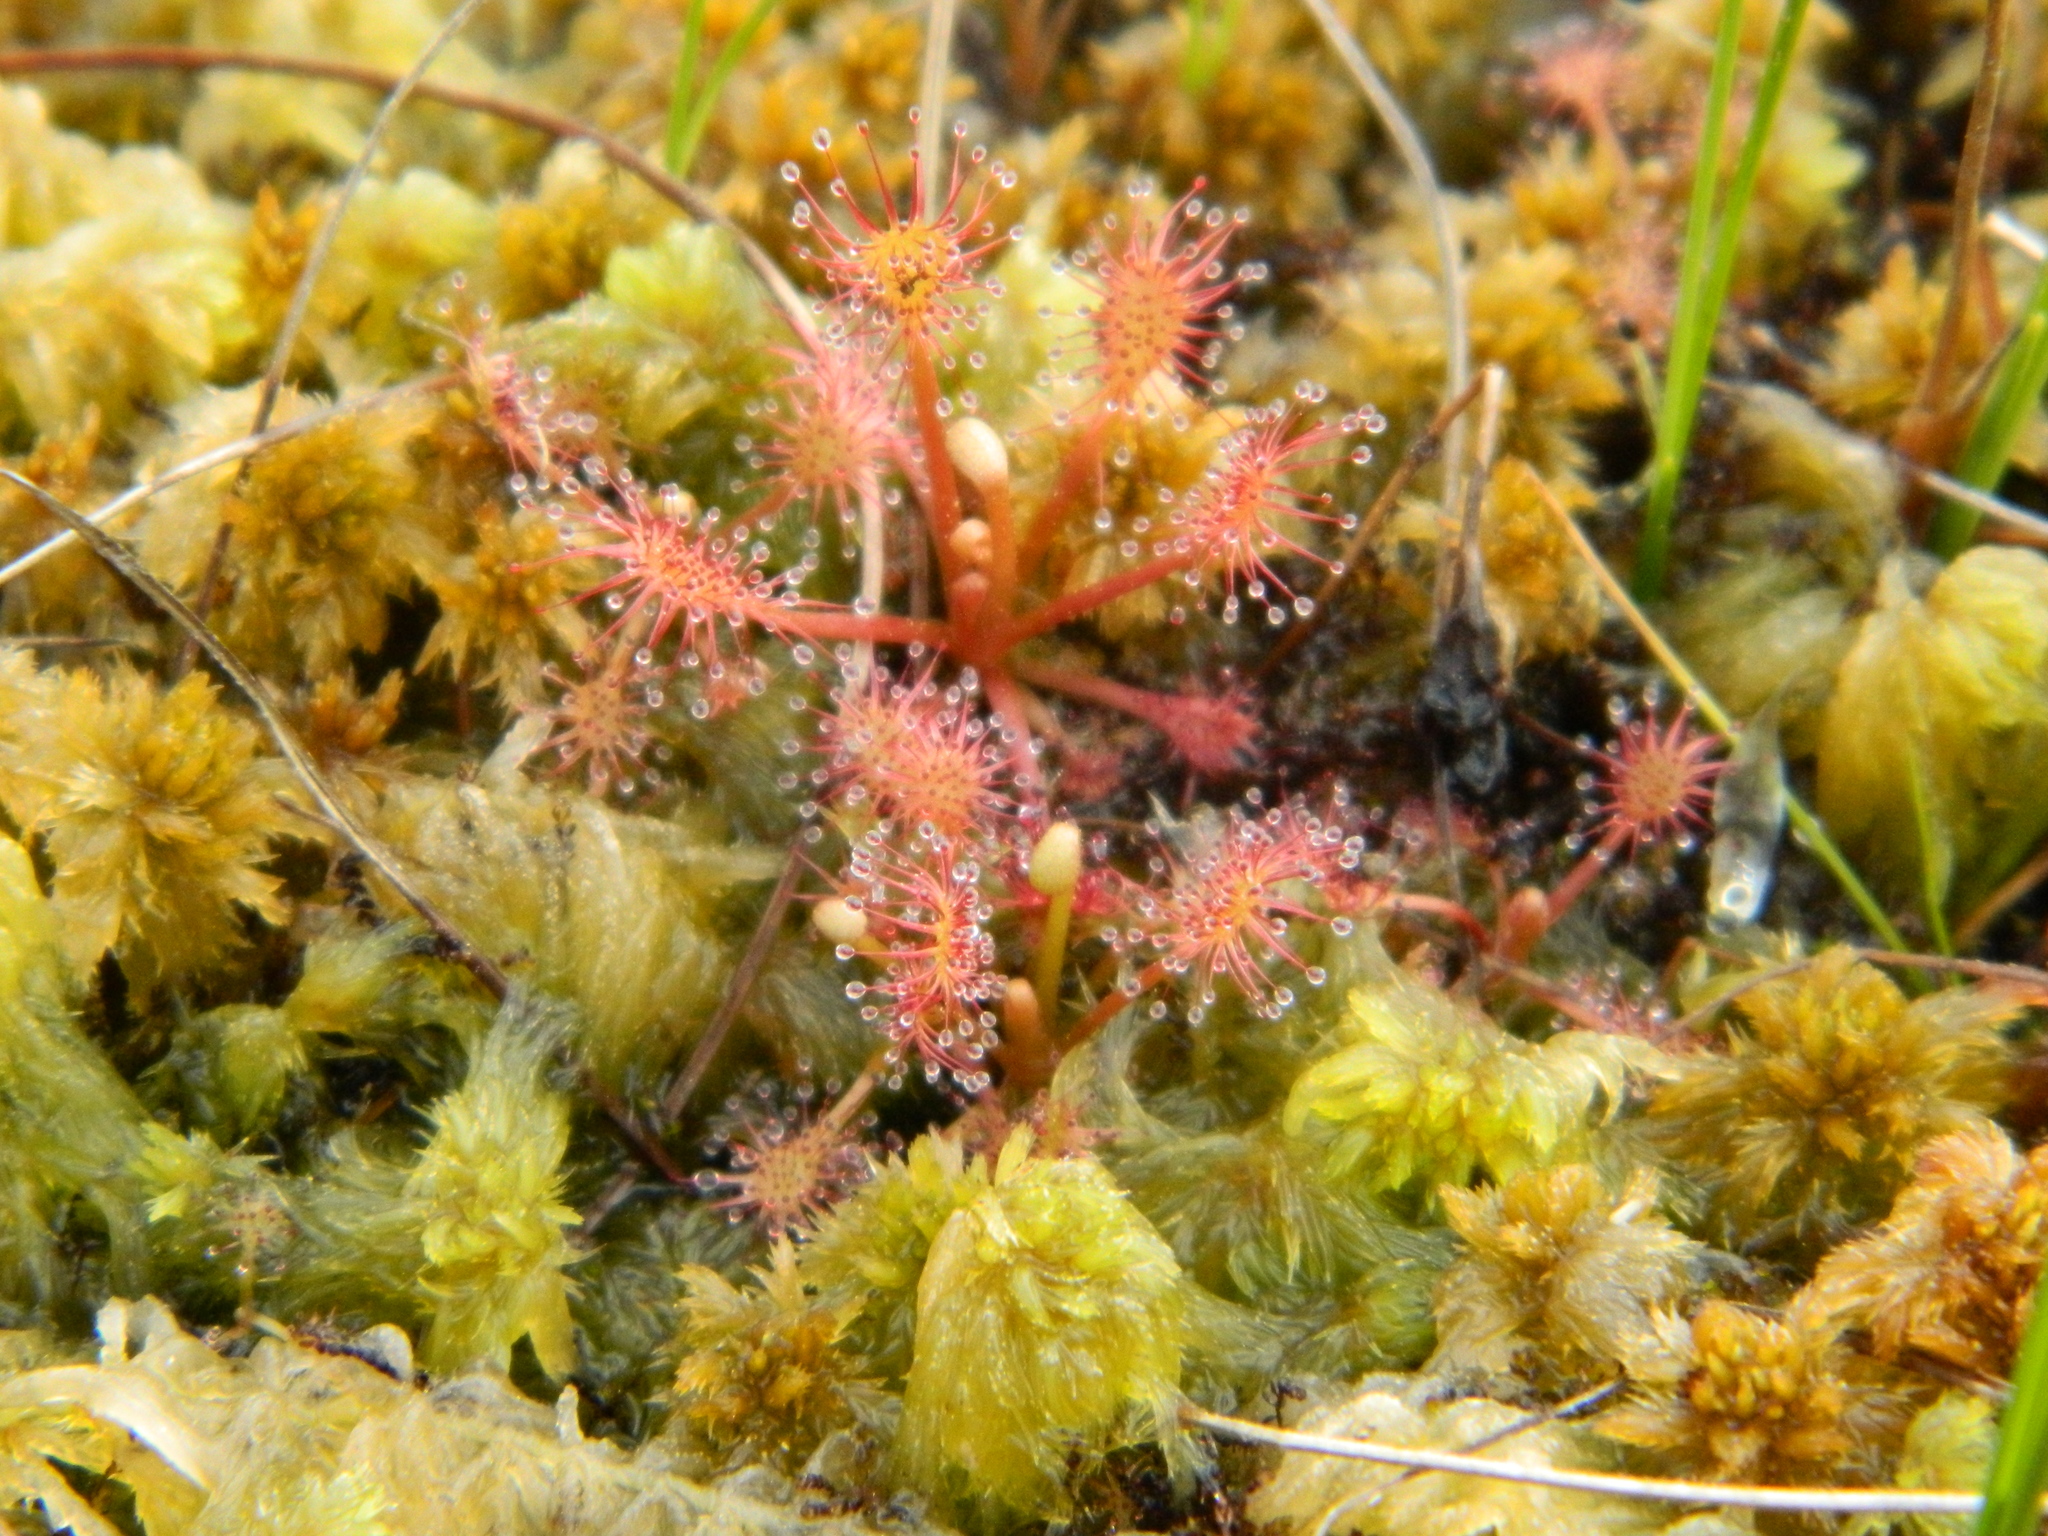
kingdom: Plantae
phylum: Tracheophyta
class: Magnoliopsida
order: Caryophyllales
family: Droseraceae
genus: Drosera
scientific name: Drosera intermedia
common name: Oblong-leaved sundew
